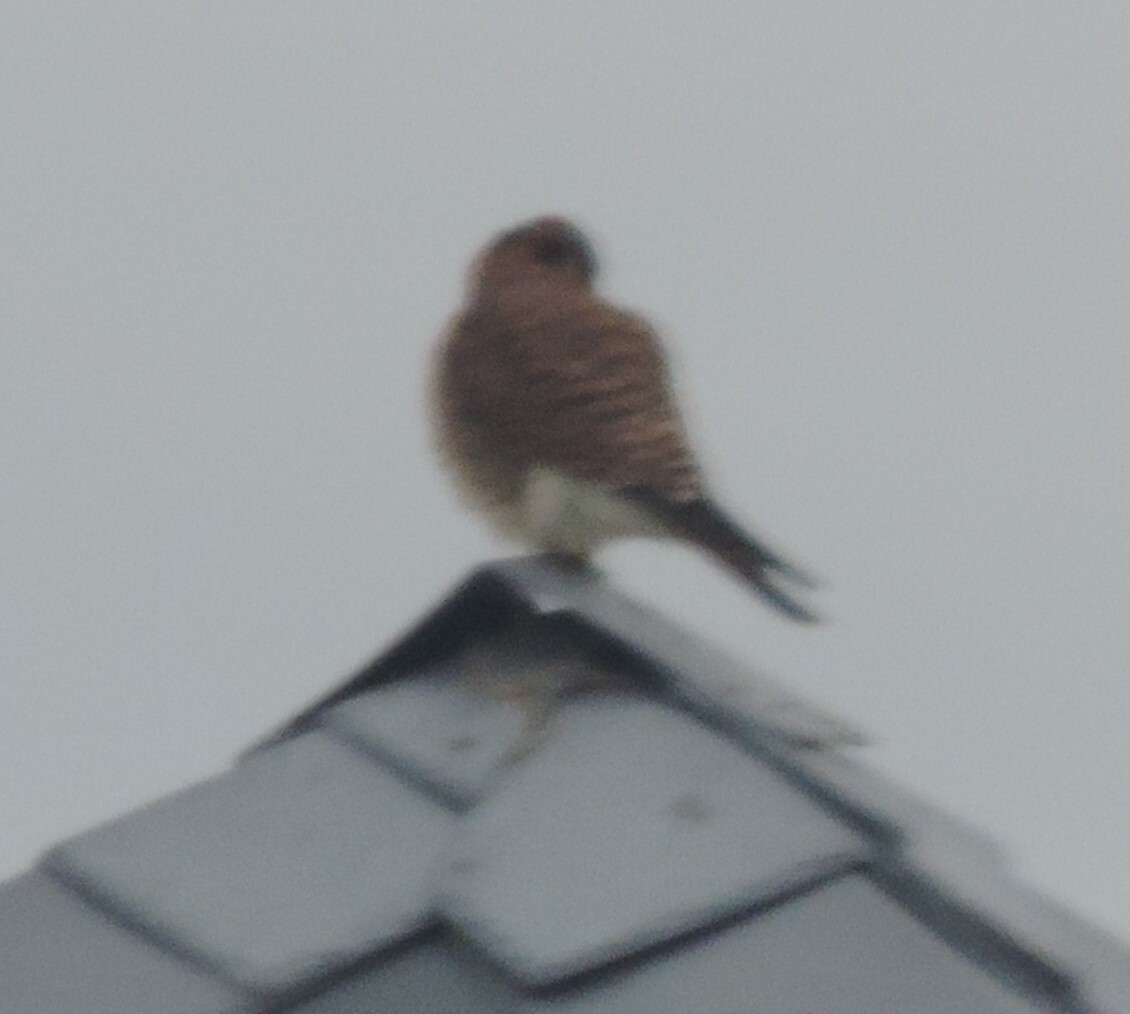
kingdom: Animalia
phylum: Chordata
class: Aves
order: Falconiformes
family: Falconidae
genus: Falco
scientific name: Falco sparverius
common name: American kestrel
